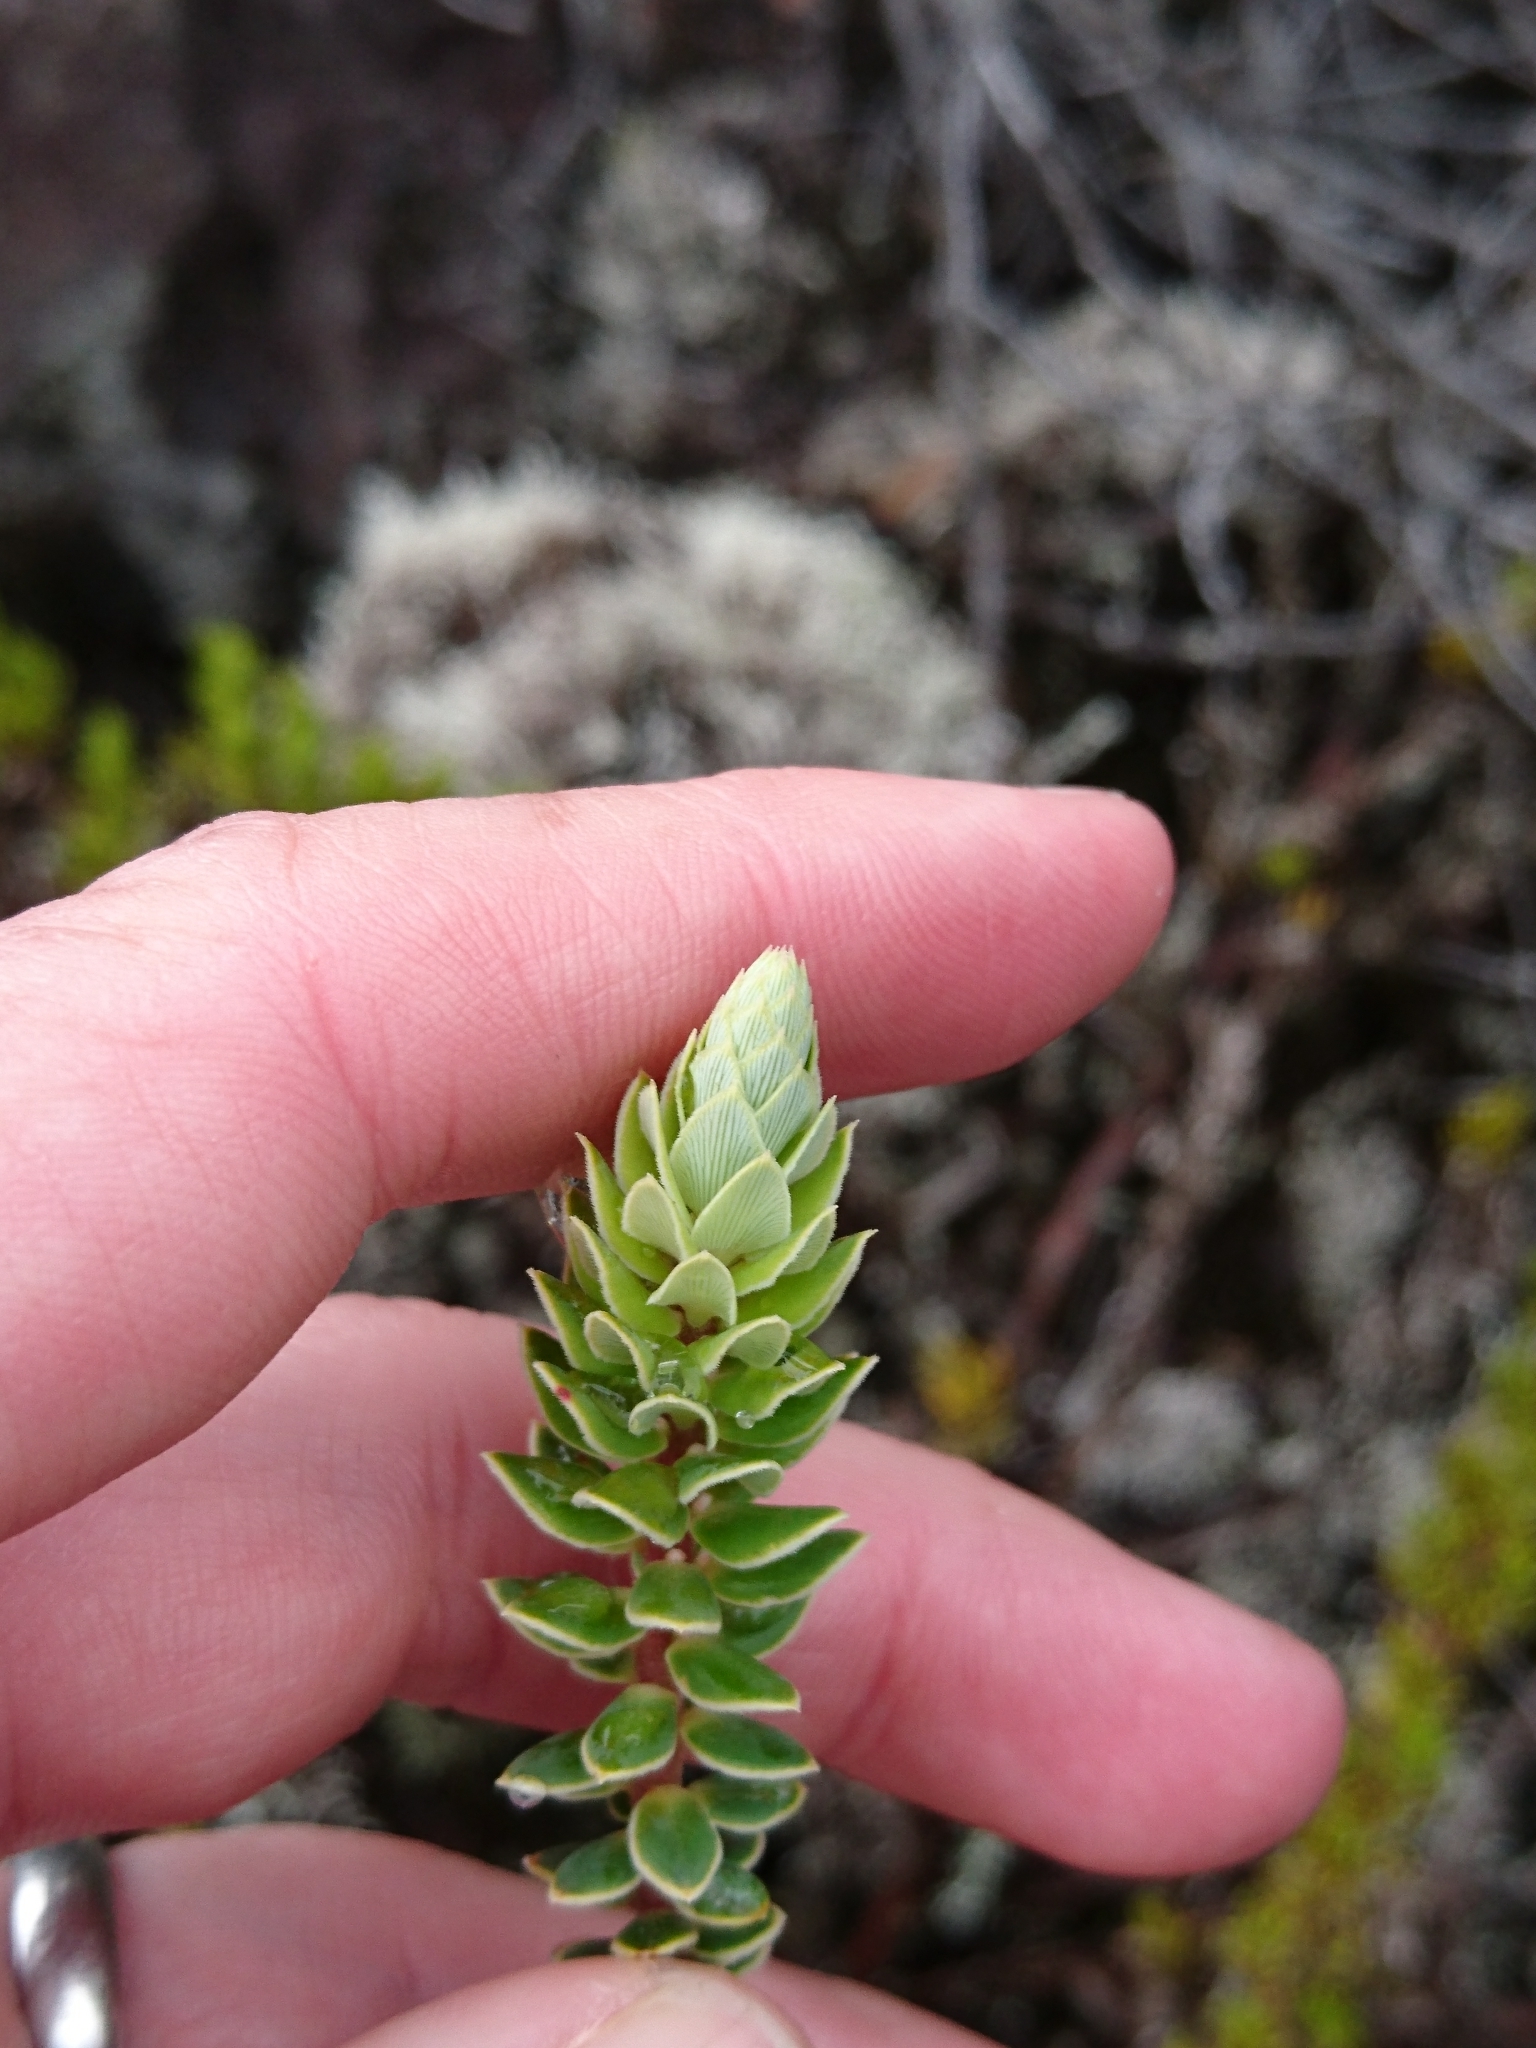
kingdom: Plantae
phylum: Tracheophyta
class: Magnoliopsida
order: Ericales
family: Ericaceae
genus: Leptecophylla
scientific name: Leptecophylla tameiameiae
